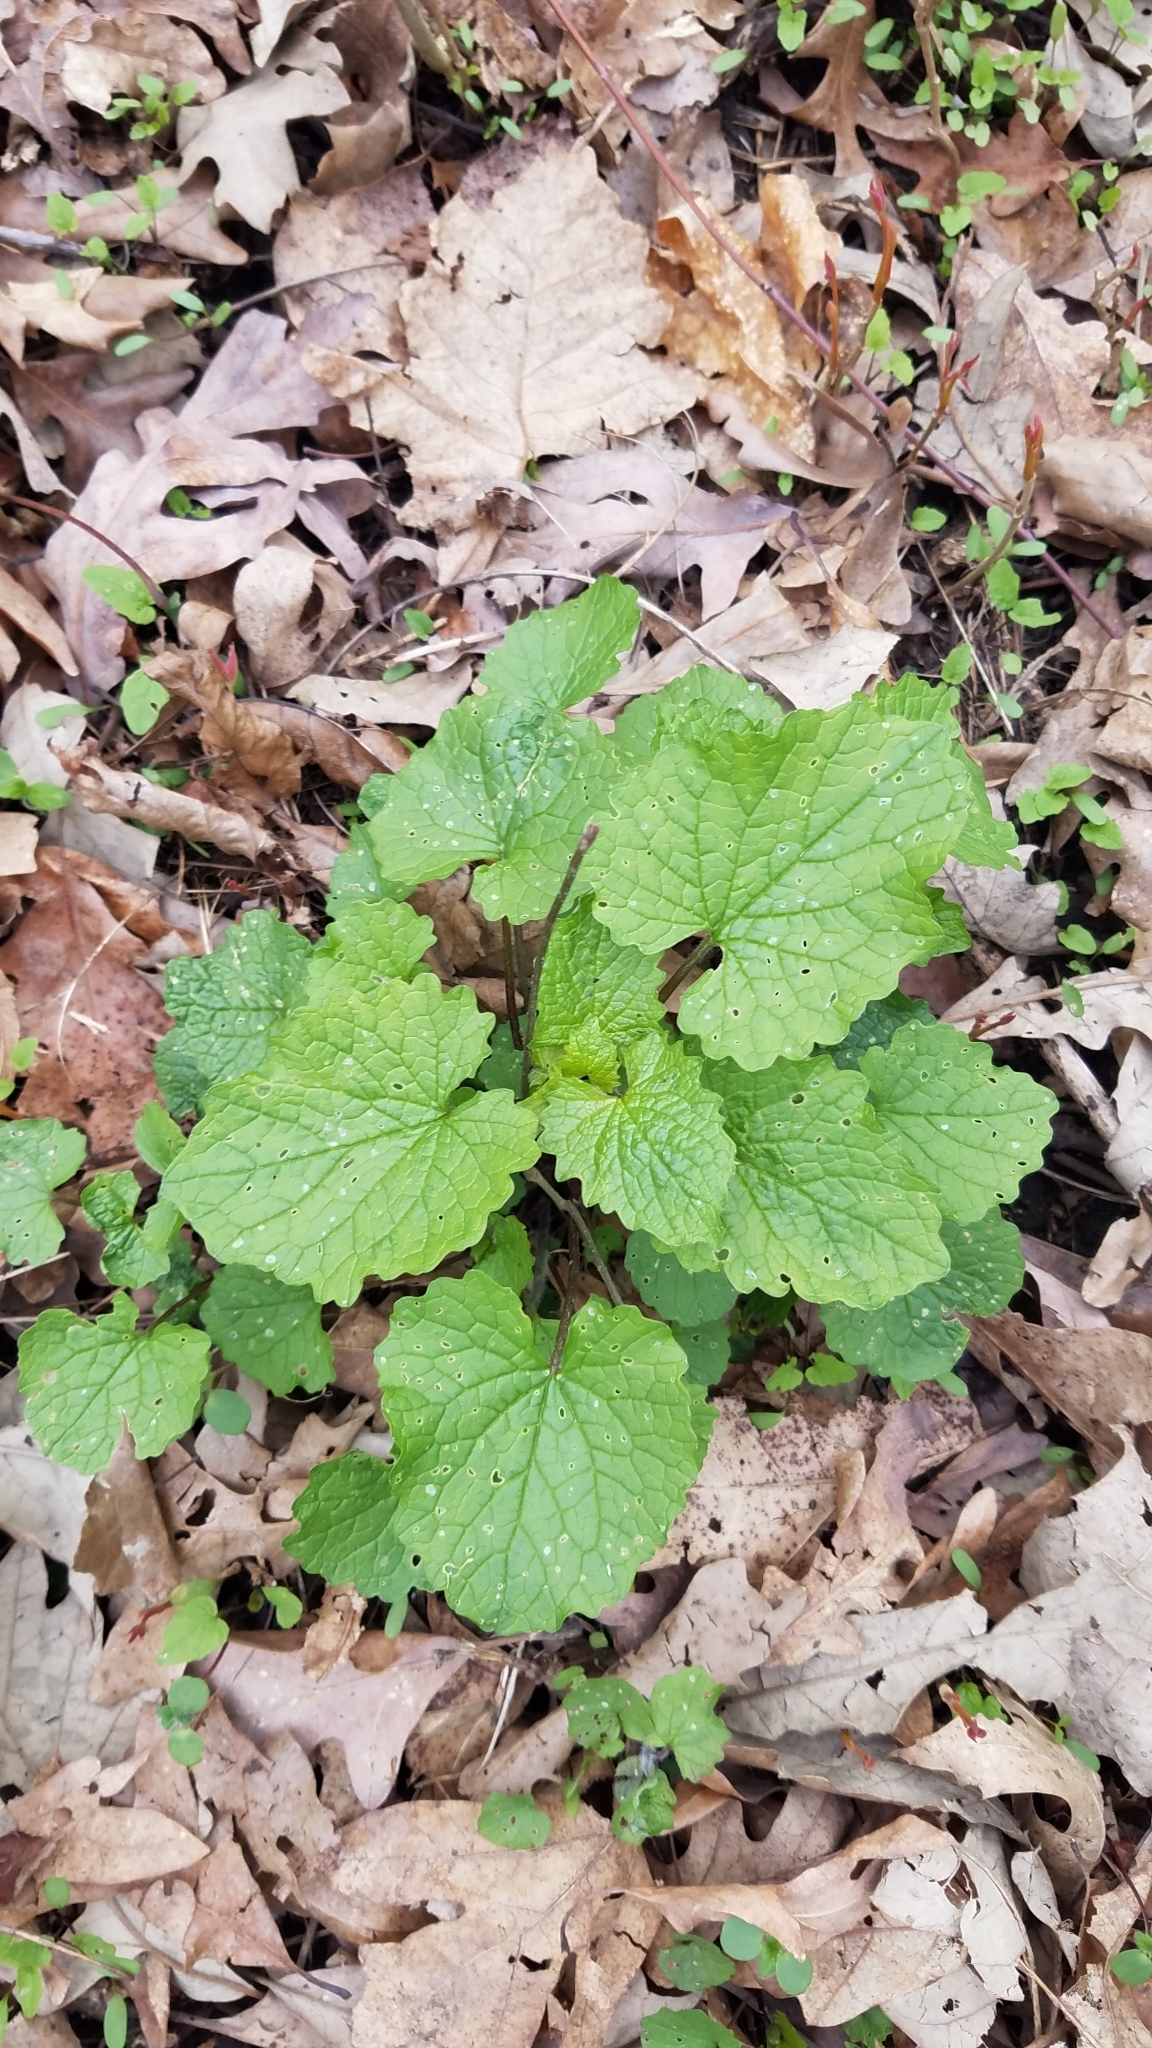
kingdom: Plantae
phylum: Tracheophyta
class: Magnoliopsida
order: Brassicales
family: Brassicaceae
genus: Alliaria
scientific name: Alliaria petiolata
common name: Garlic mustard
